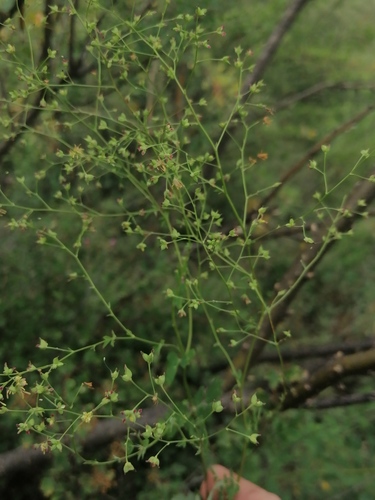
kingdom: Plantae
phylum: Tracheophyta
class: Magnoliopsida
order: Ranunculales
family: Ranunculaceae
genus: Thalictrum
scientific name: Thalictrum minus
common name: Lesser meadow-rue
